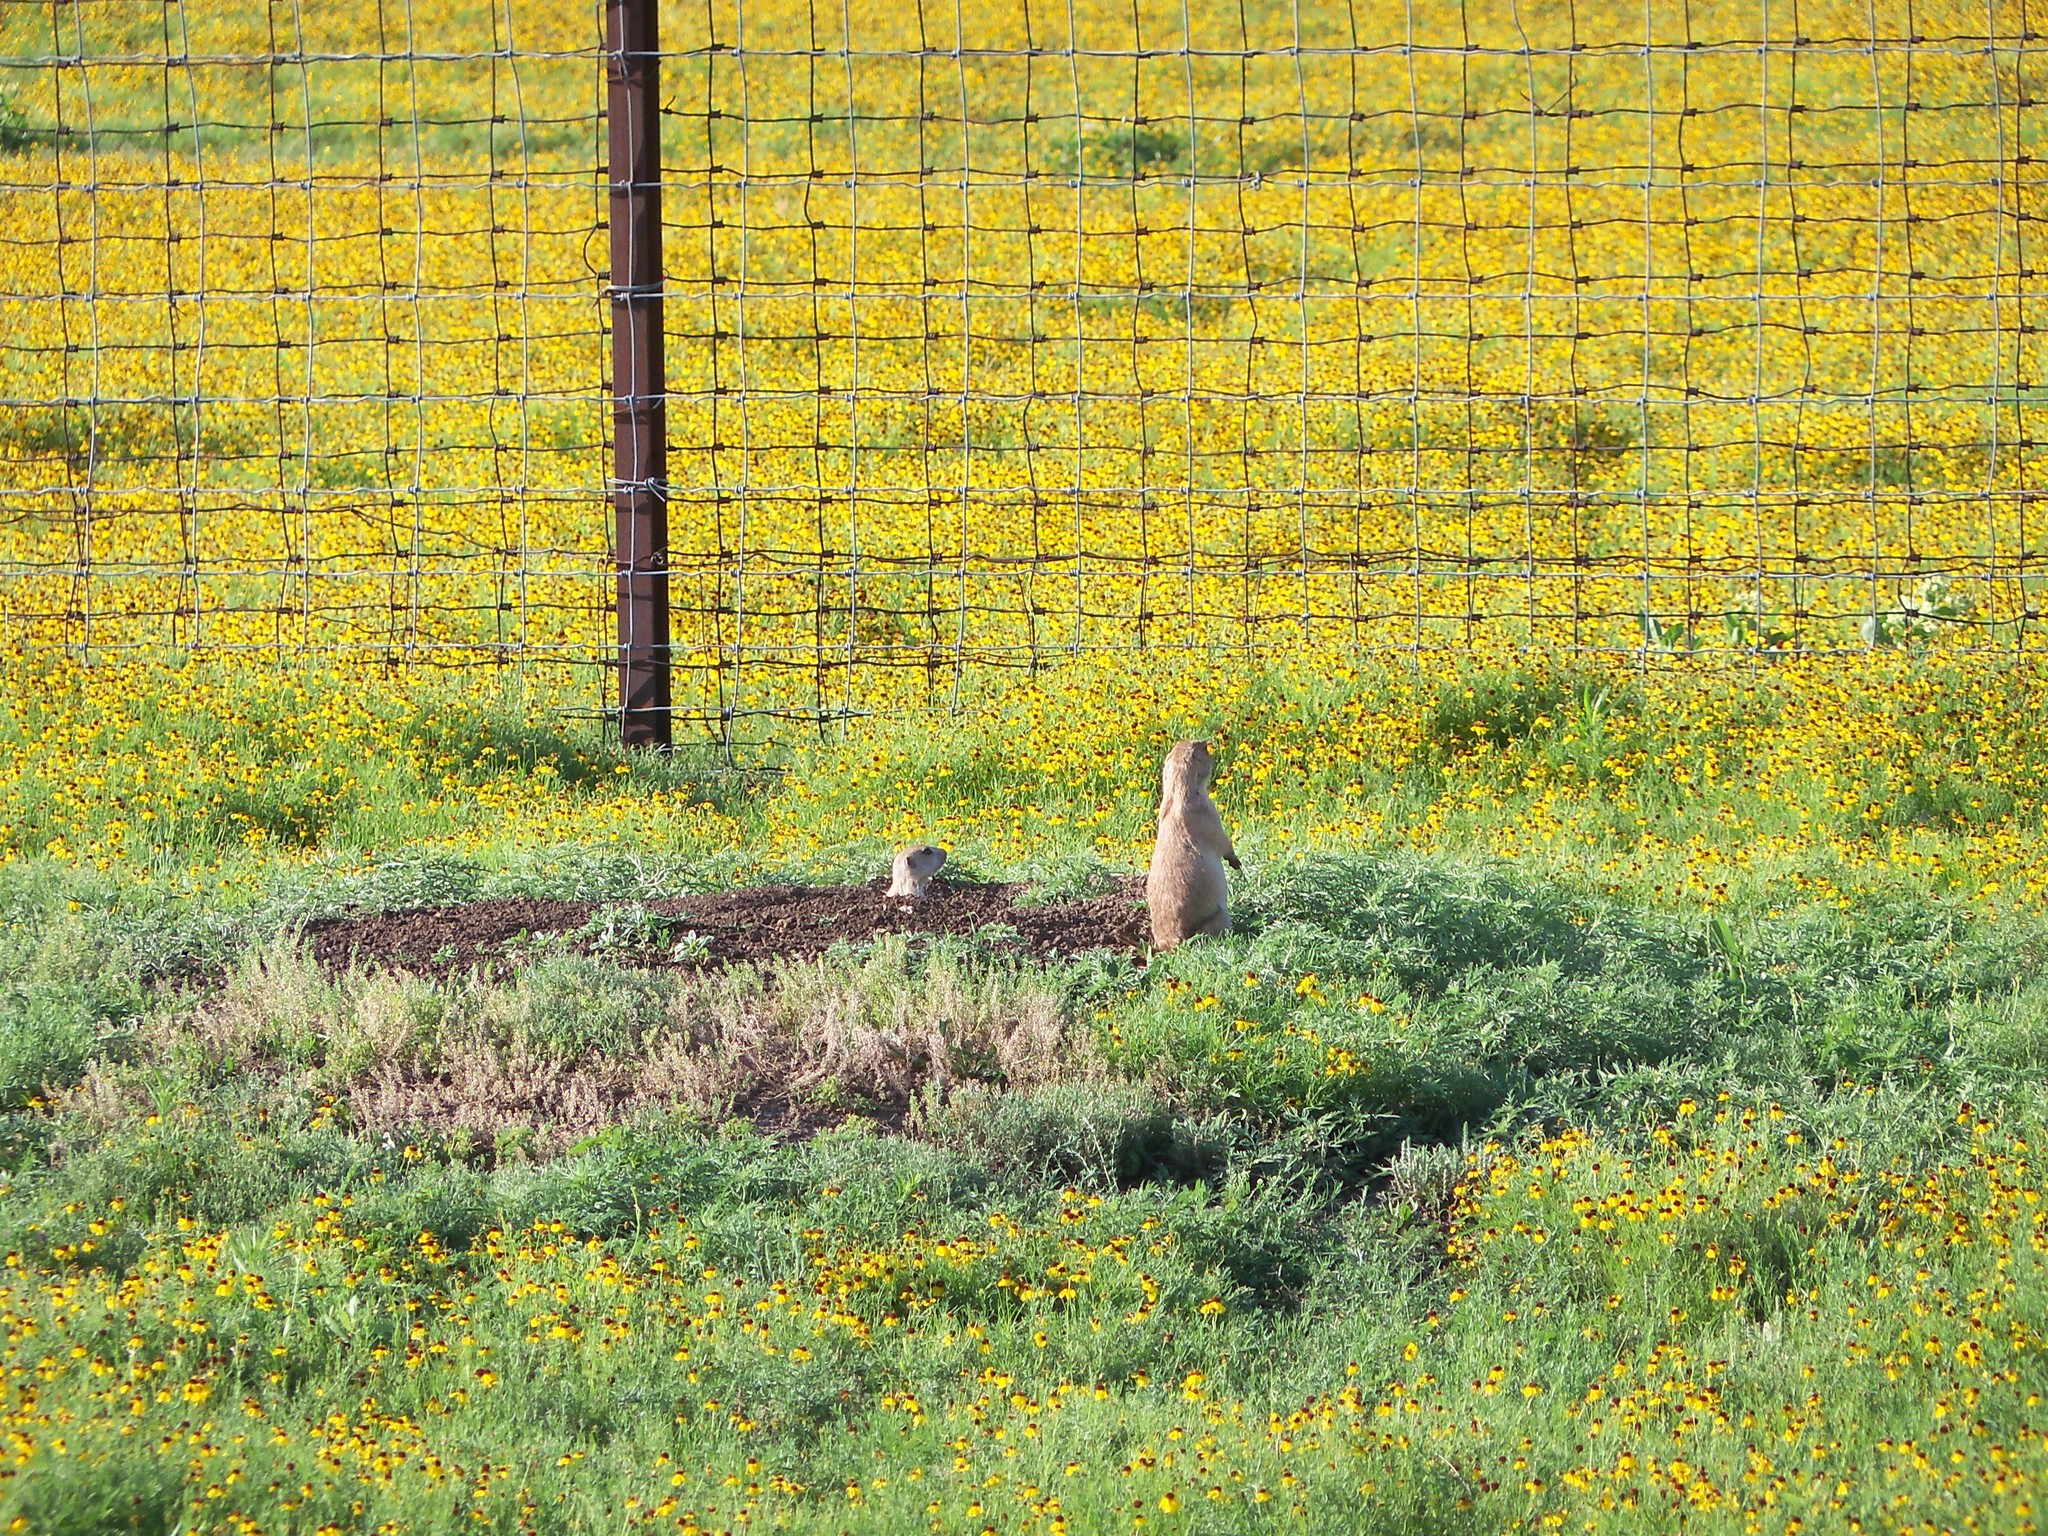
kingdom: Animalia
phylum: Chordata
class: Mammalia
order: Rodentia
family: Sciuridae
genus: Cynomys
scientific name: Cynomys ludovicianus
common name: Black-tailed prairie dog
